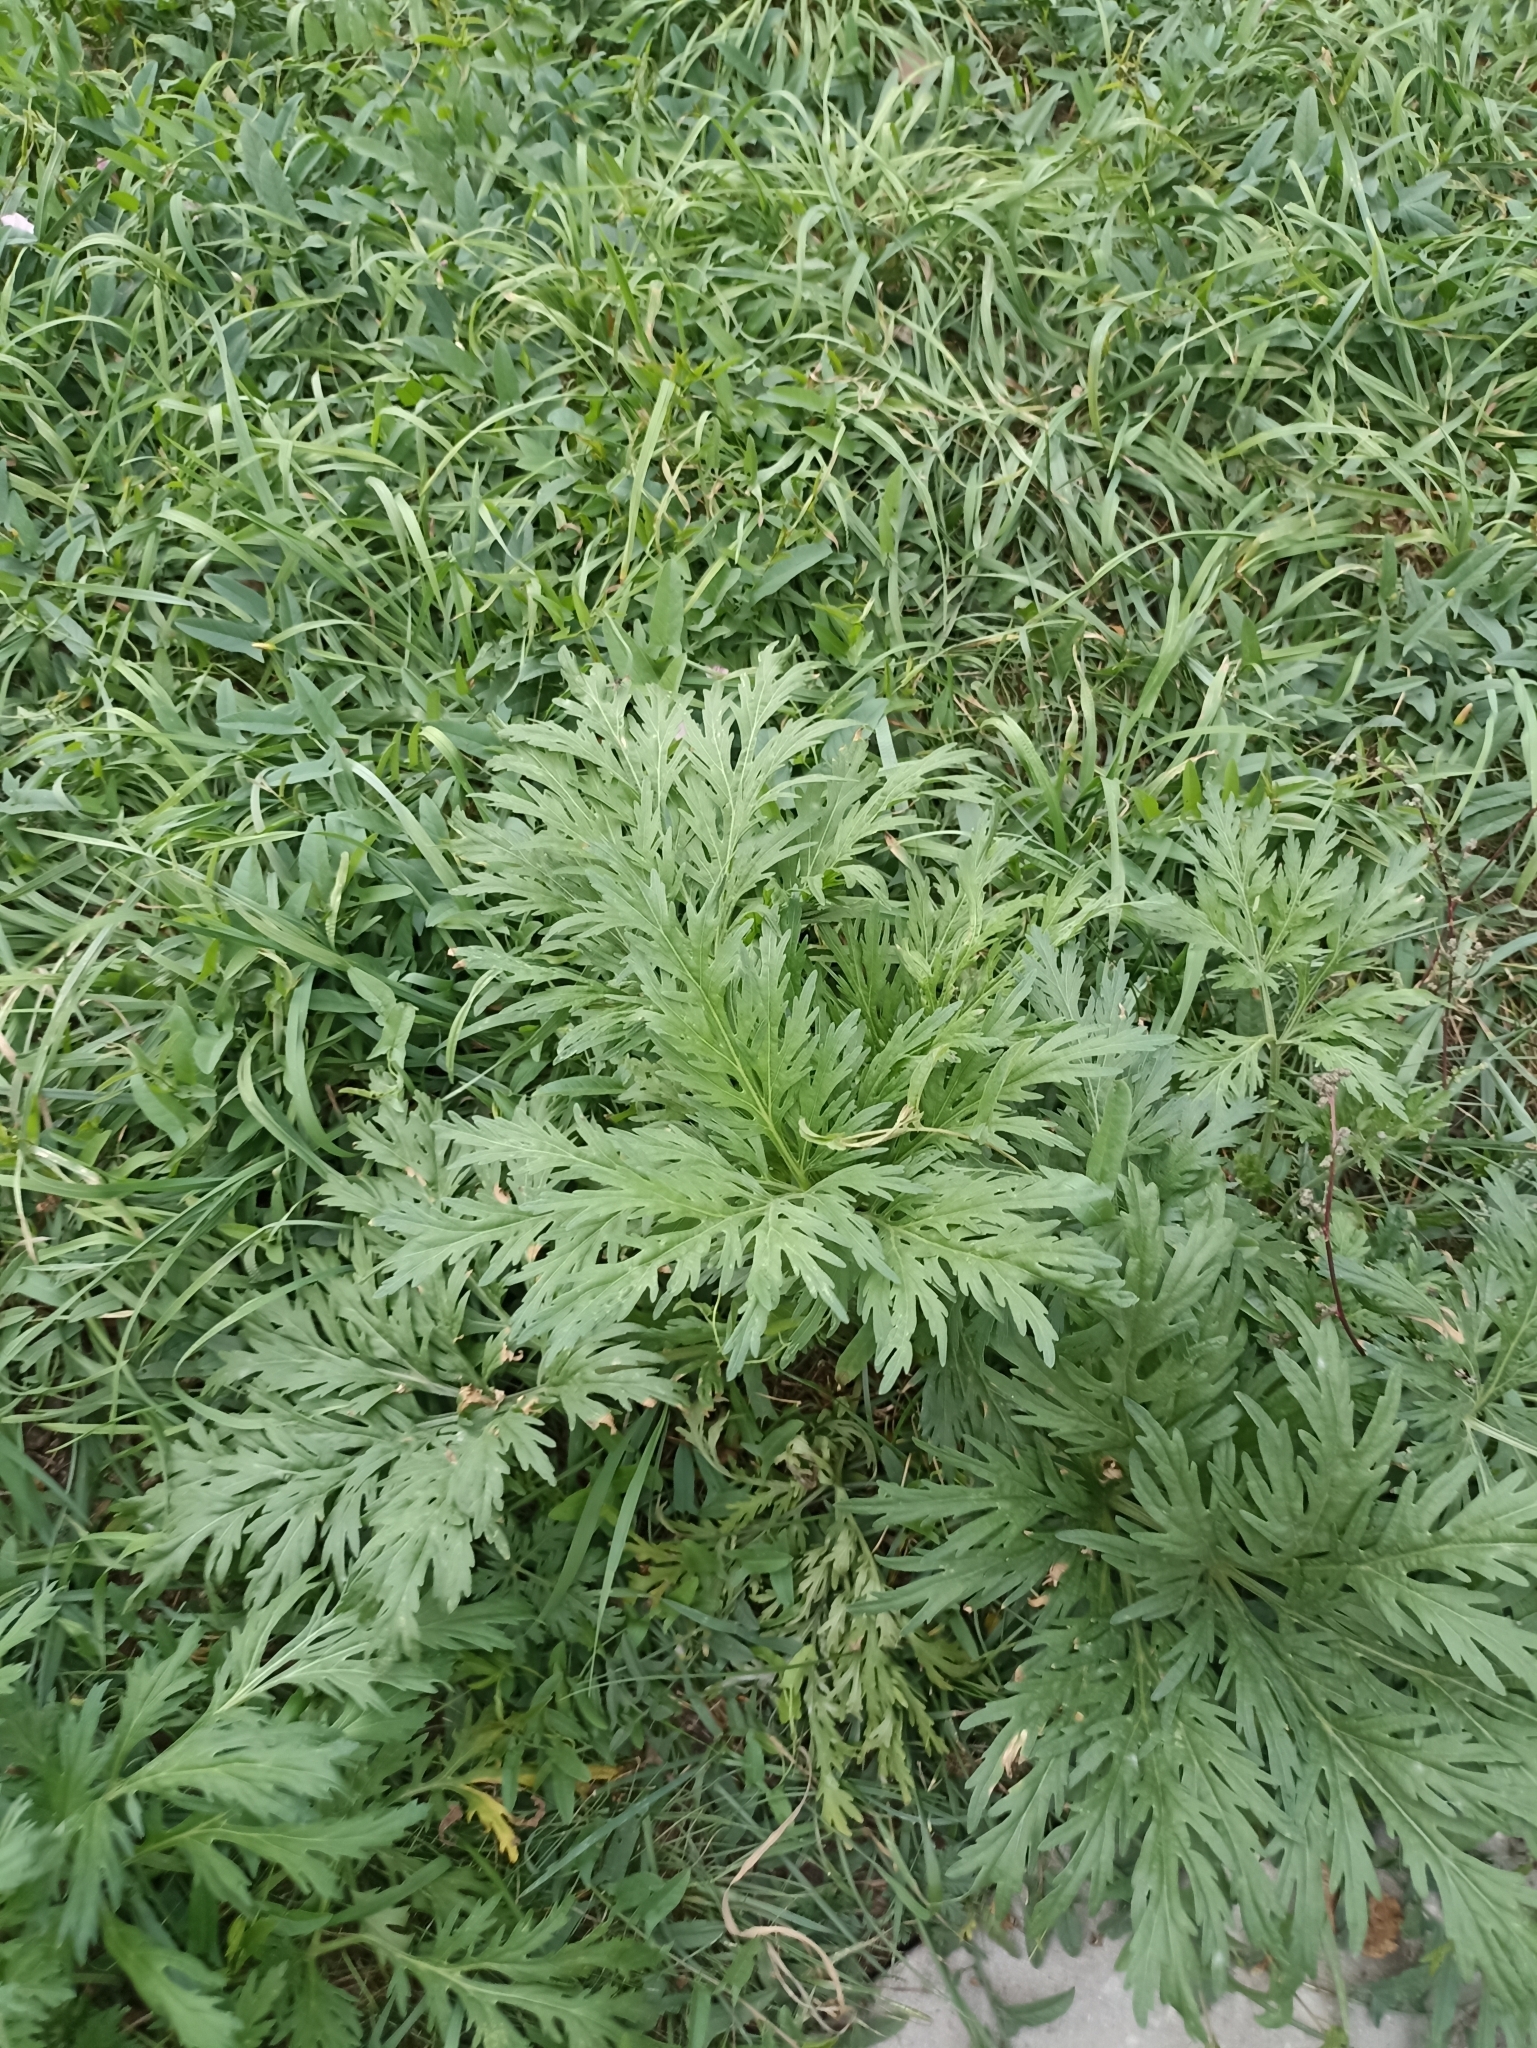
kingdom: Plantae
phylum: Tracheophyta
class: Magnoliopsida
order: Asterales
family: Asteraceae
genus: Artemisia
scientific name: Artemisia sieversiana
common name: Sieversian wormwood
